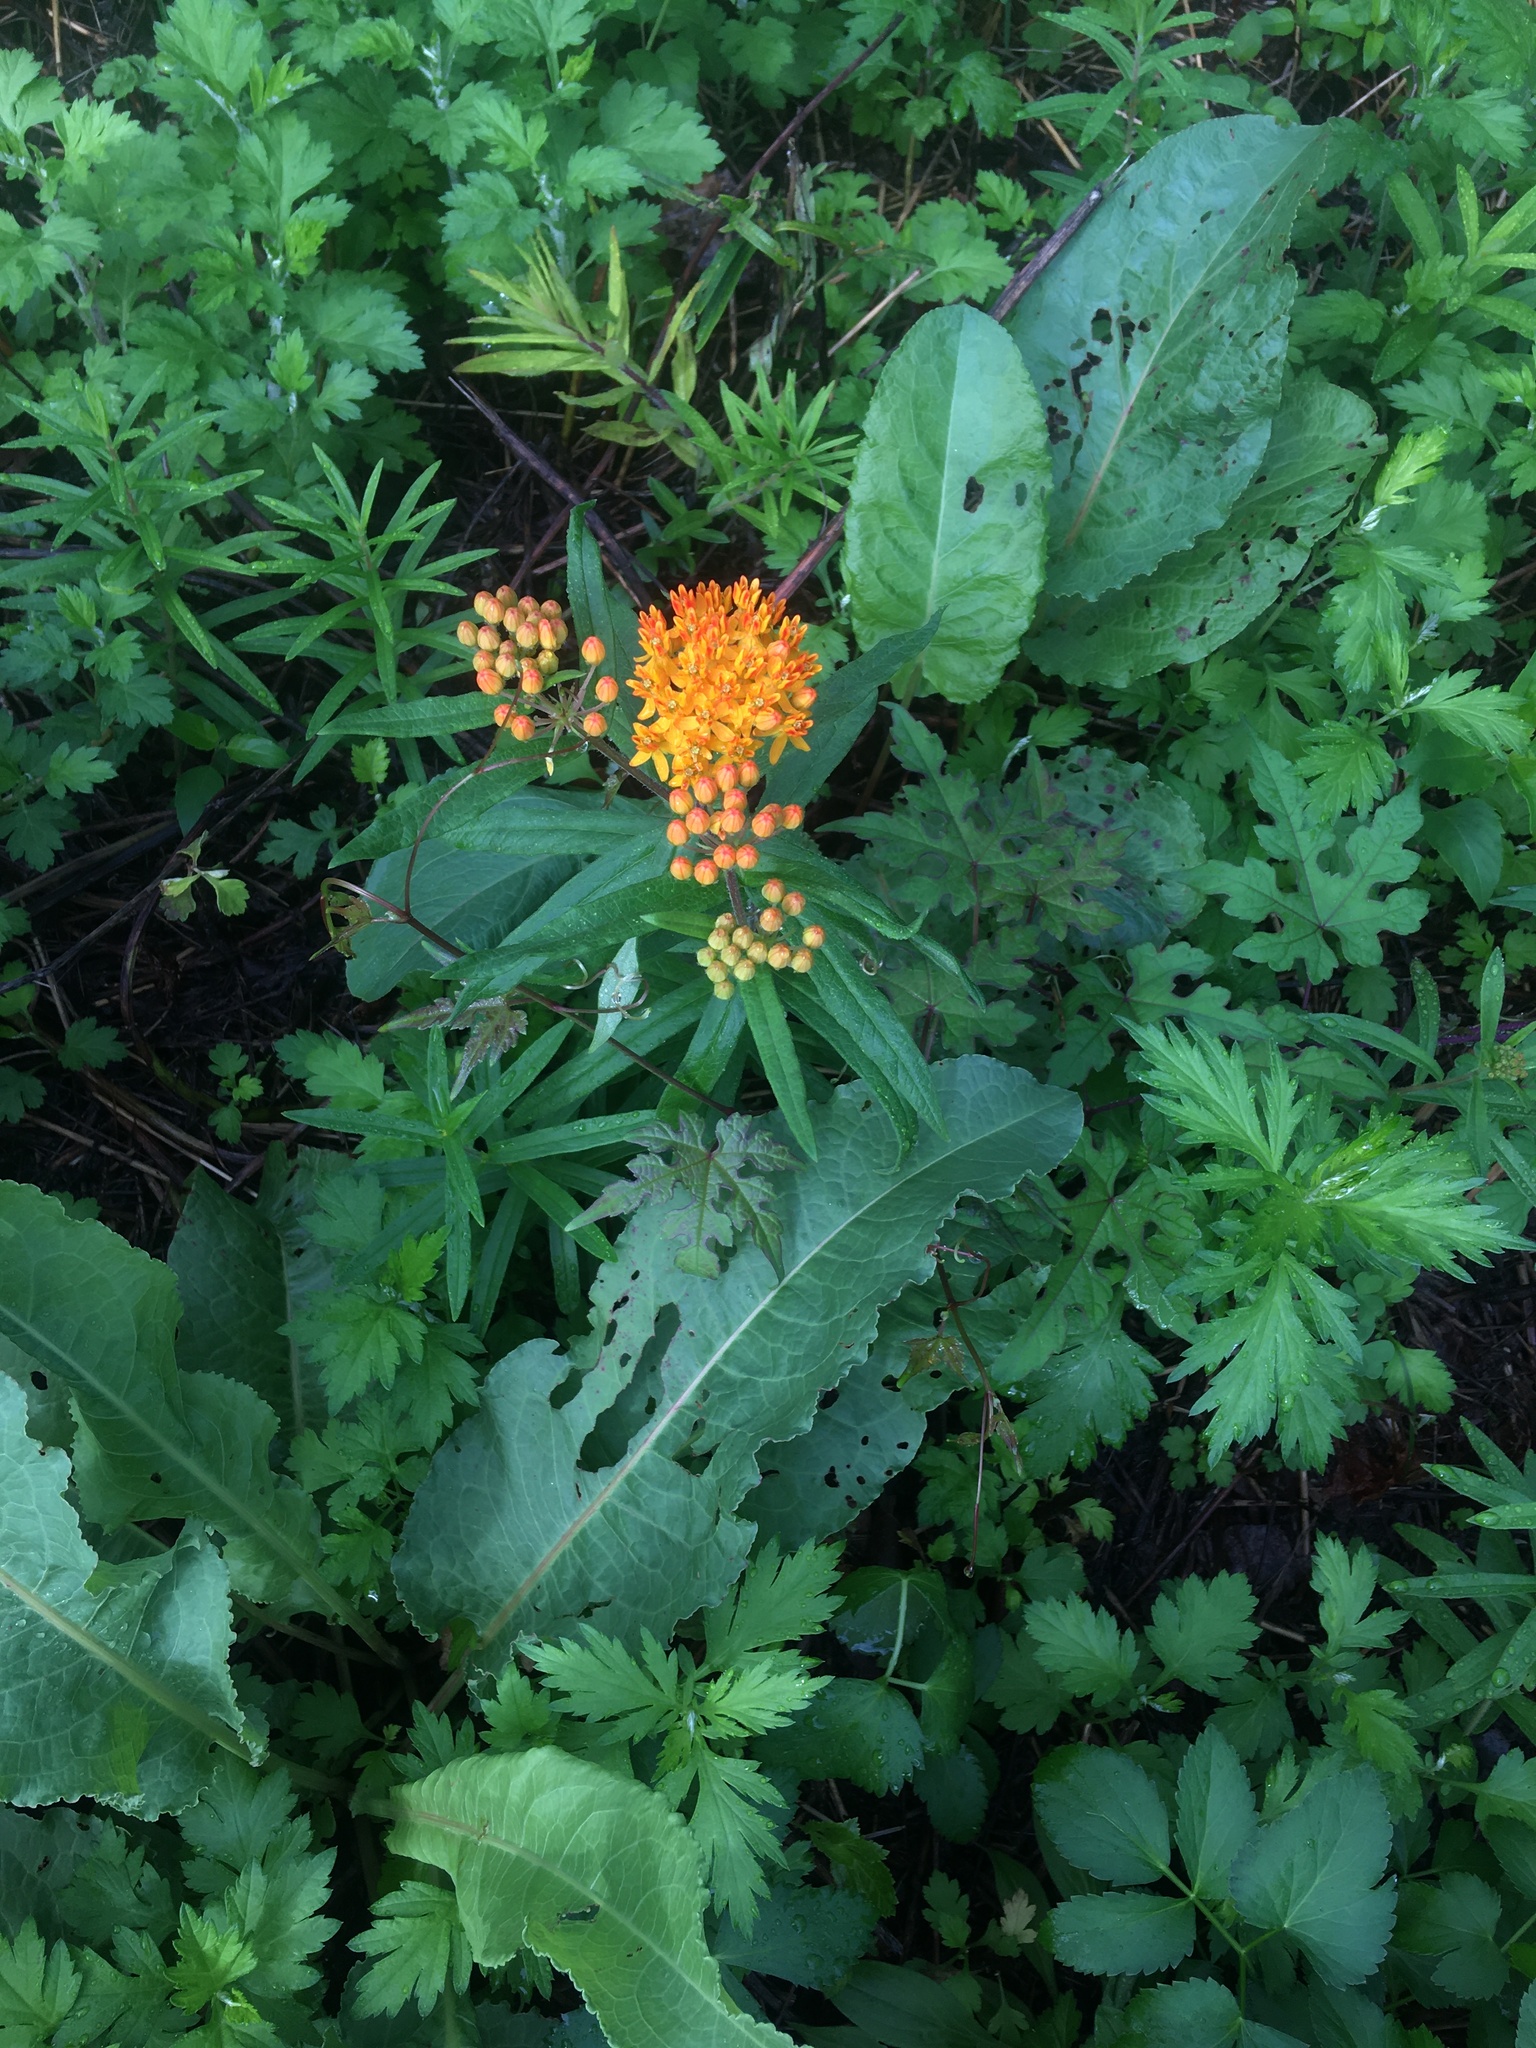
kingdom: Plantae
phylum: Tracheophyta
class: Magnoliopsida
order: Gentianales
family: Apocynaceae
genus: Asclepias
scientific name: Asclepias tuberosa
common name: Butterfly milkweed
